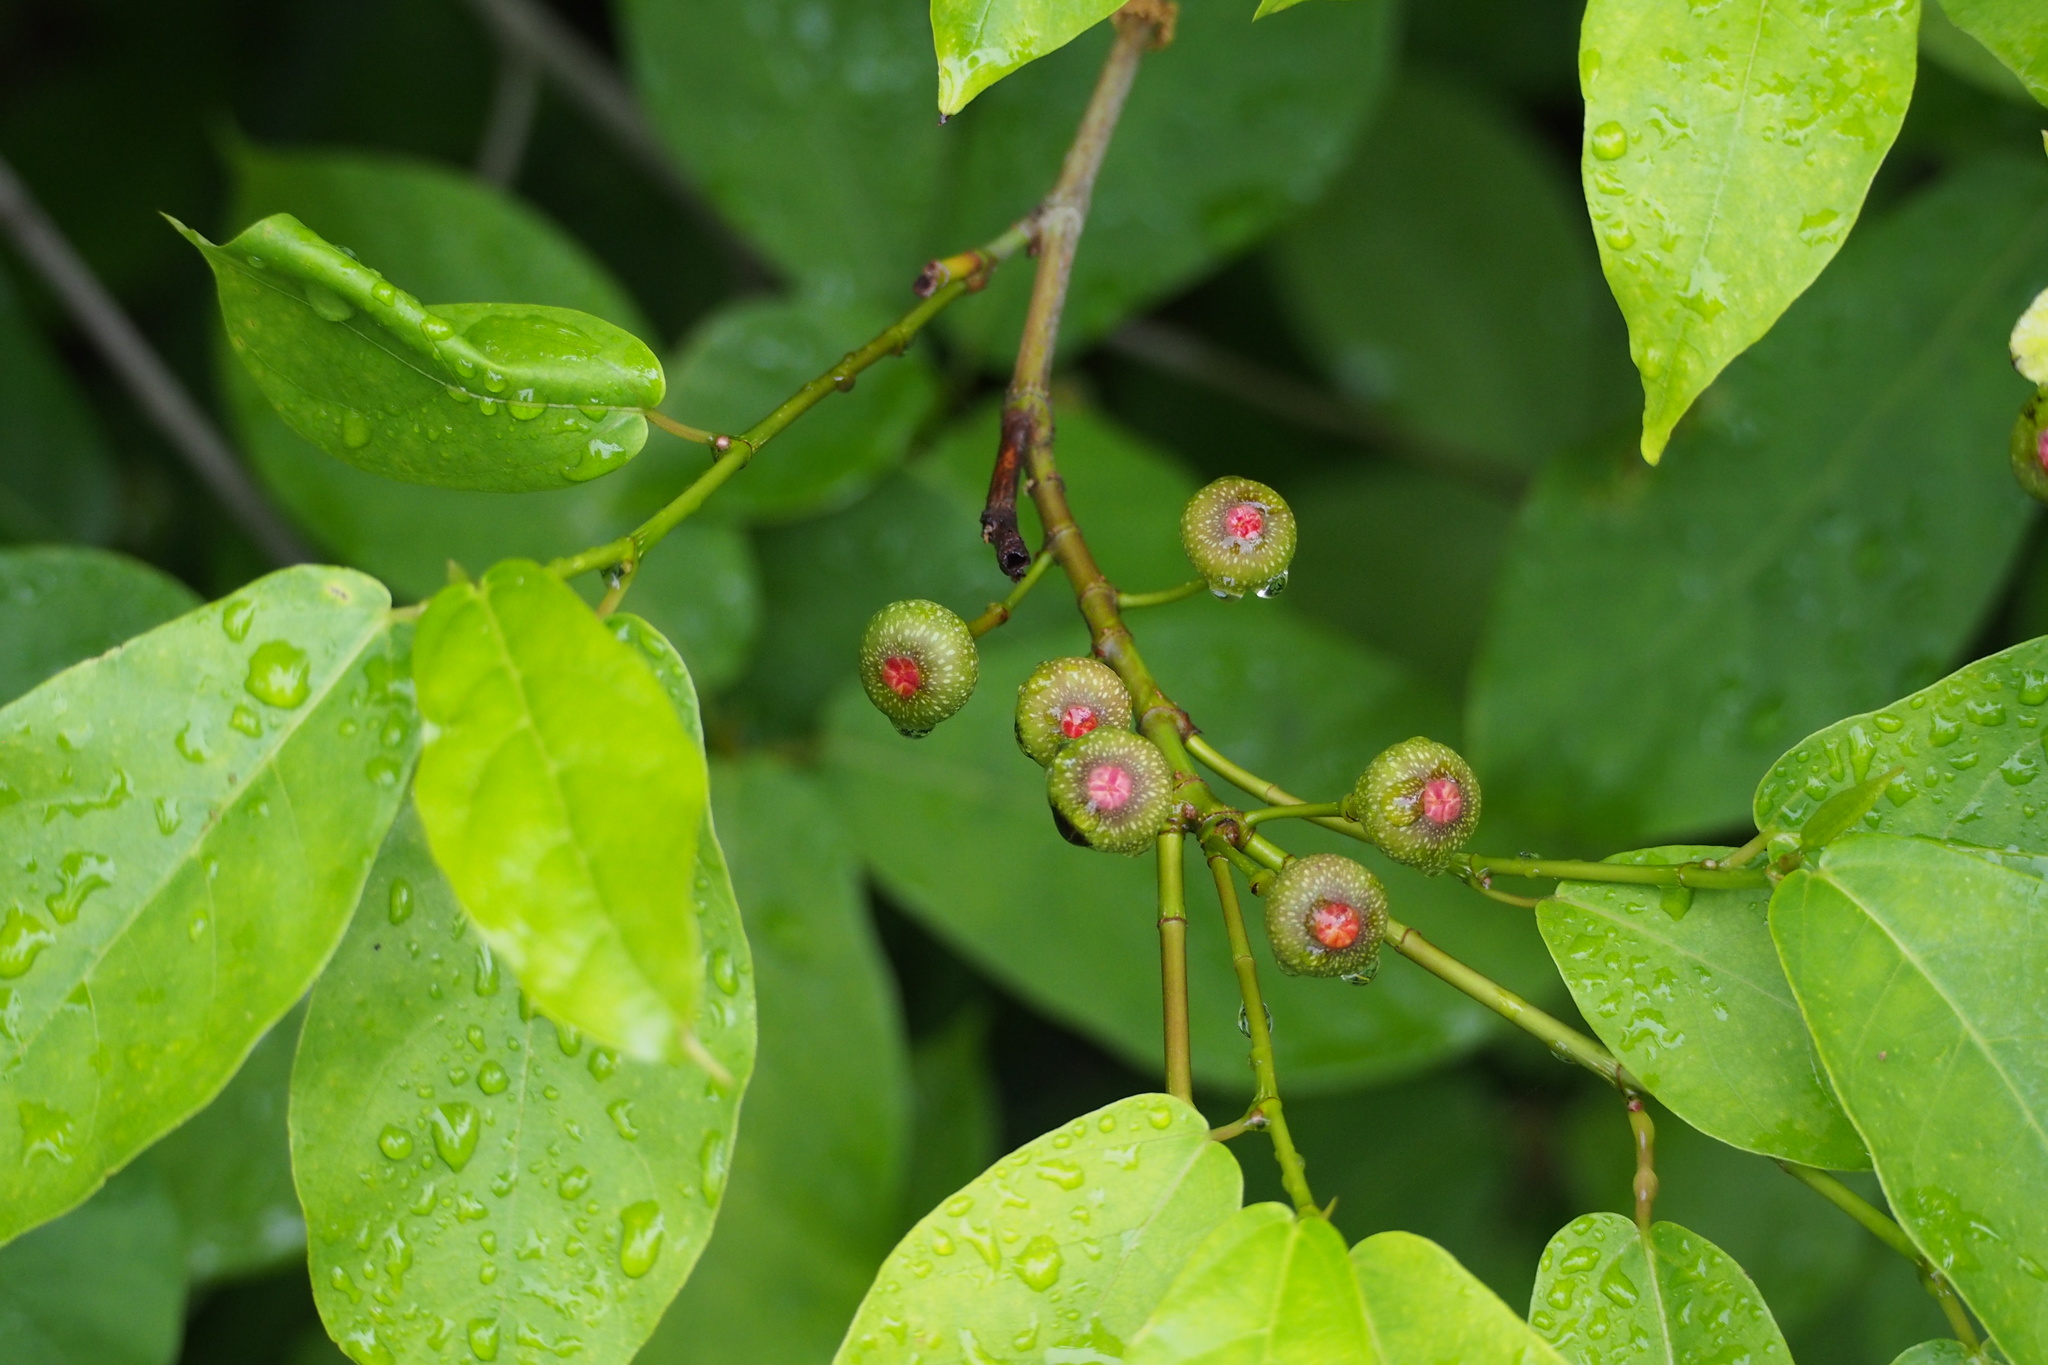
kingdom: Plantae
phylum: Tracheophyta
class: Magnoliopsida
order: Rosales
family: Moraceae
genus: Ficus
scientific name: Ficus erecta
